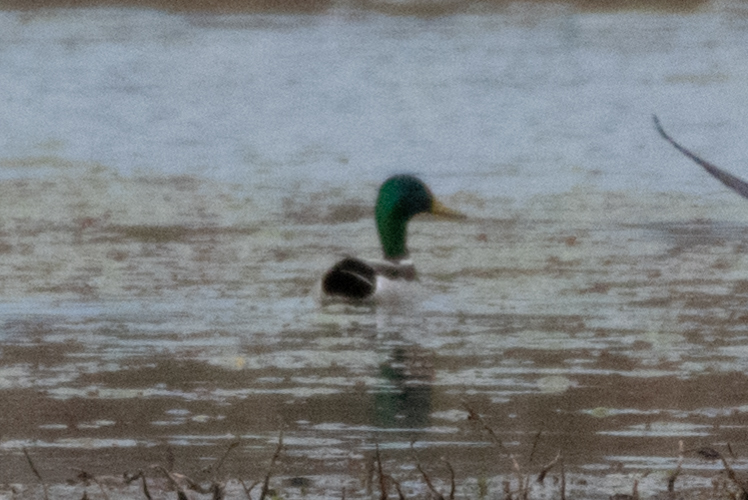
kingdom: Animalia
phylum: Chordata
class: Aves
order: Anseriformes
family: Anatidae
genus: Anas
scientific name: Anas platyrhynchos
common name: Mallard
